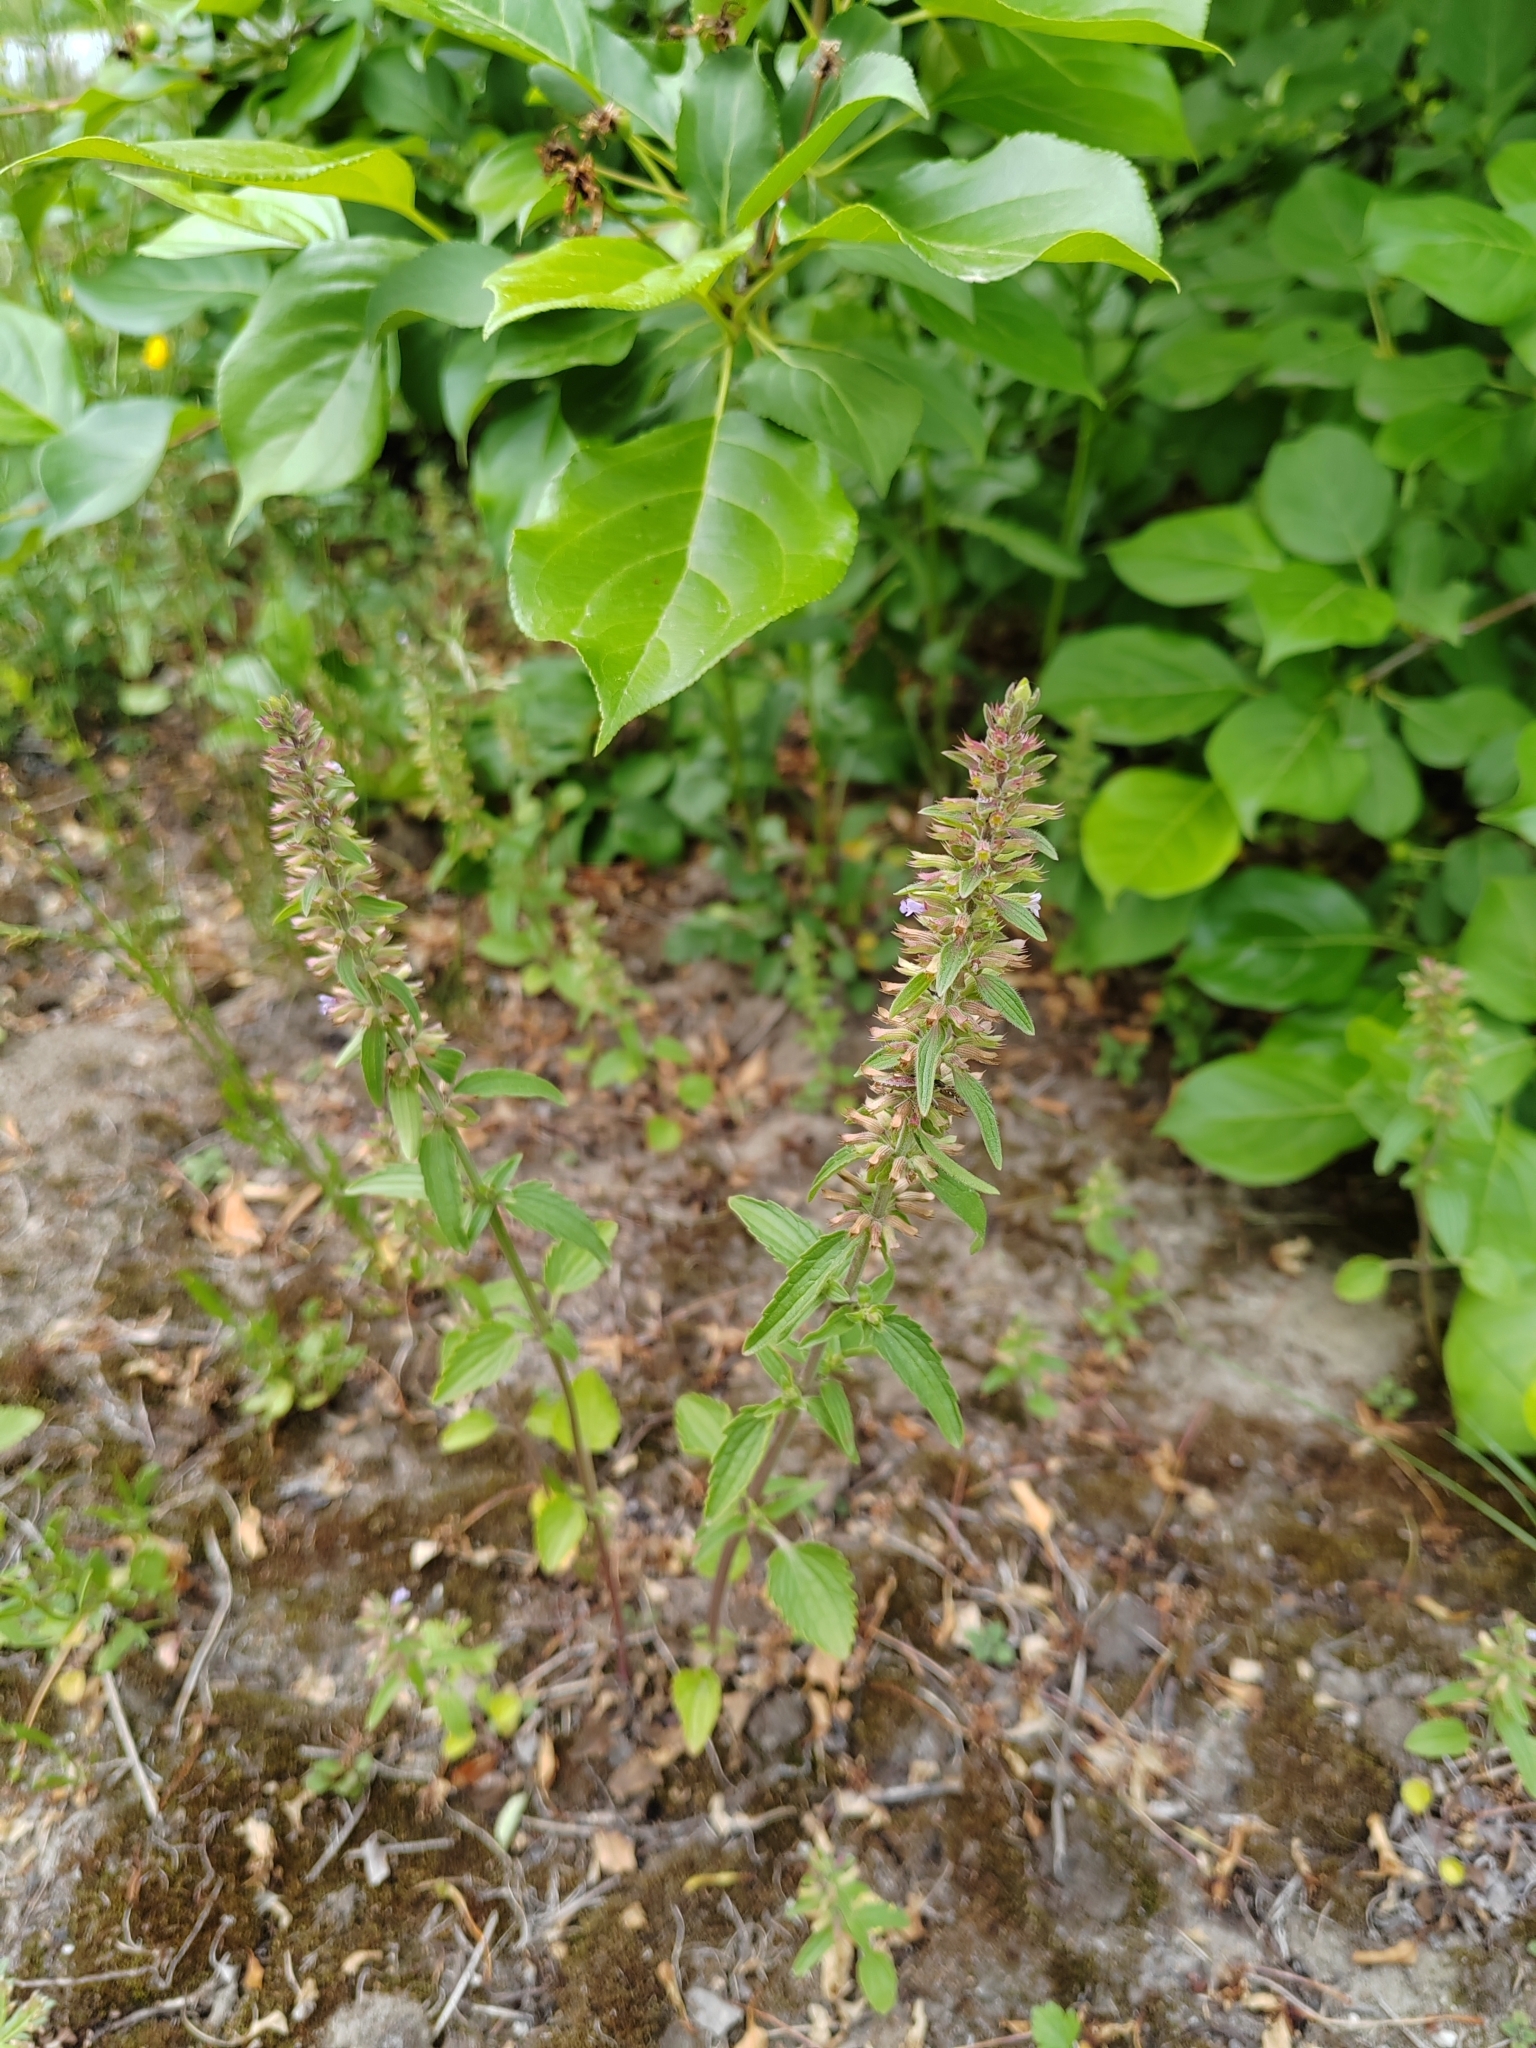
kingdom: Plantae
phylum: Tracheophyta
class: Magnoliopsida
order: Lamiales
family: Lamiaceae
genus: Dracocephalum
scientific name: Dracocephalum thymiflorum
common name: Thymeleaf dragonhead
